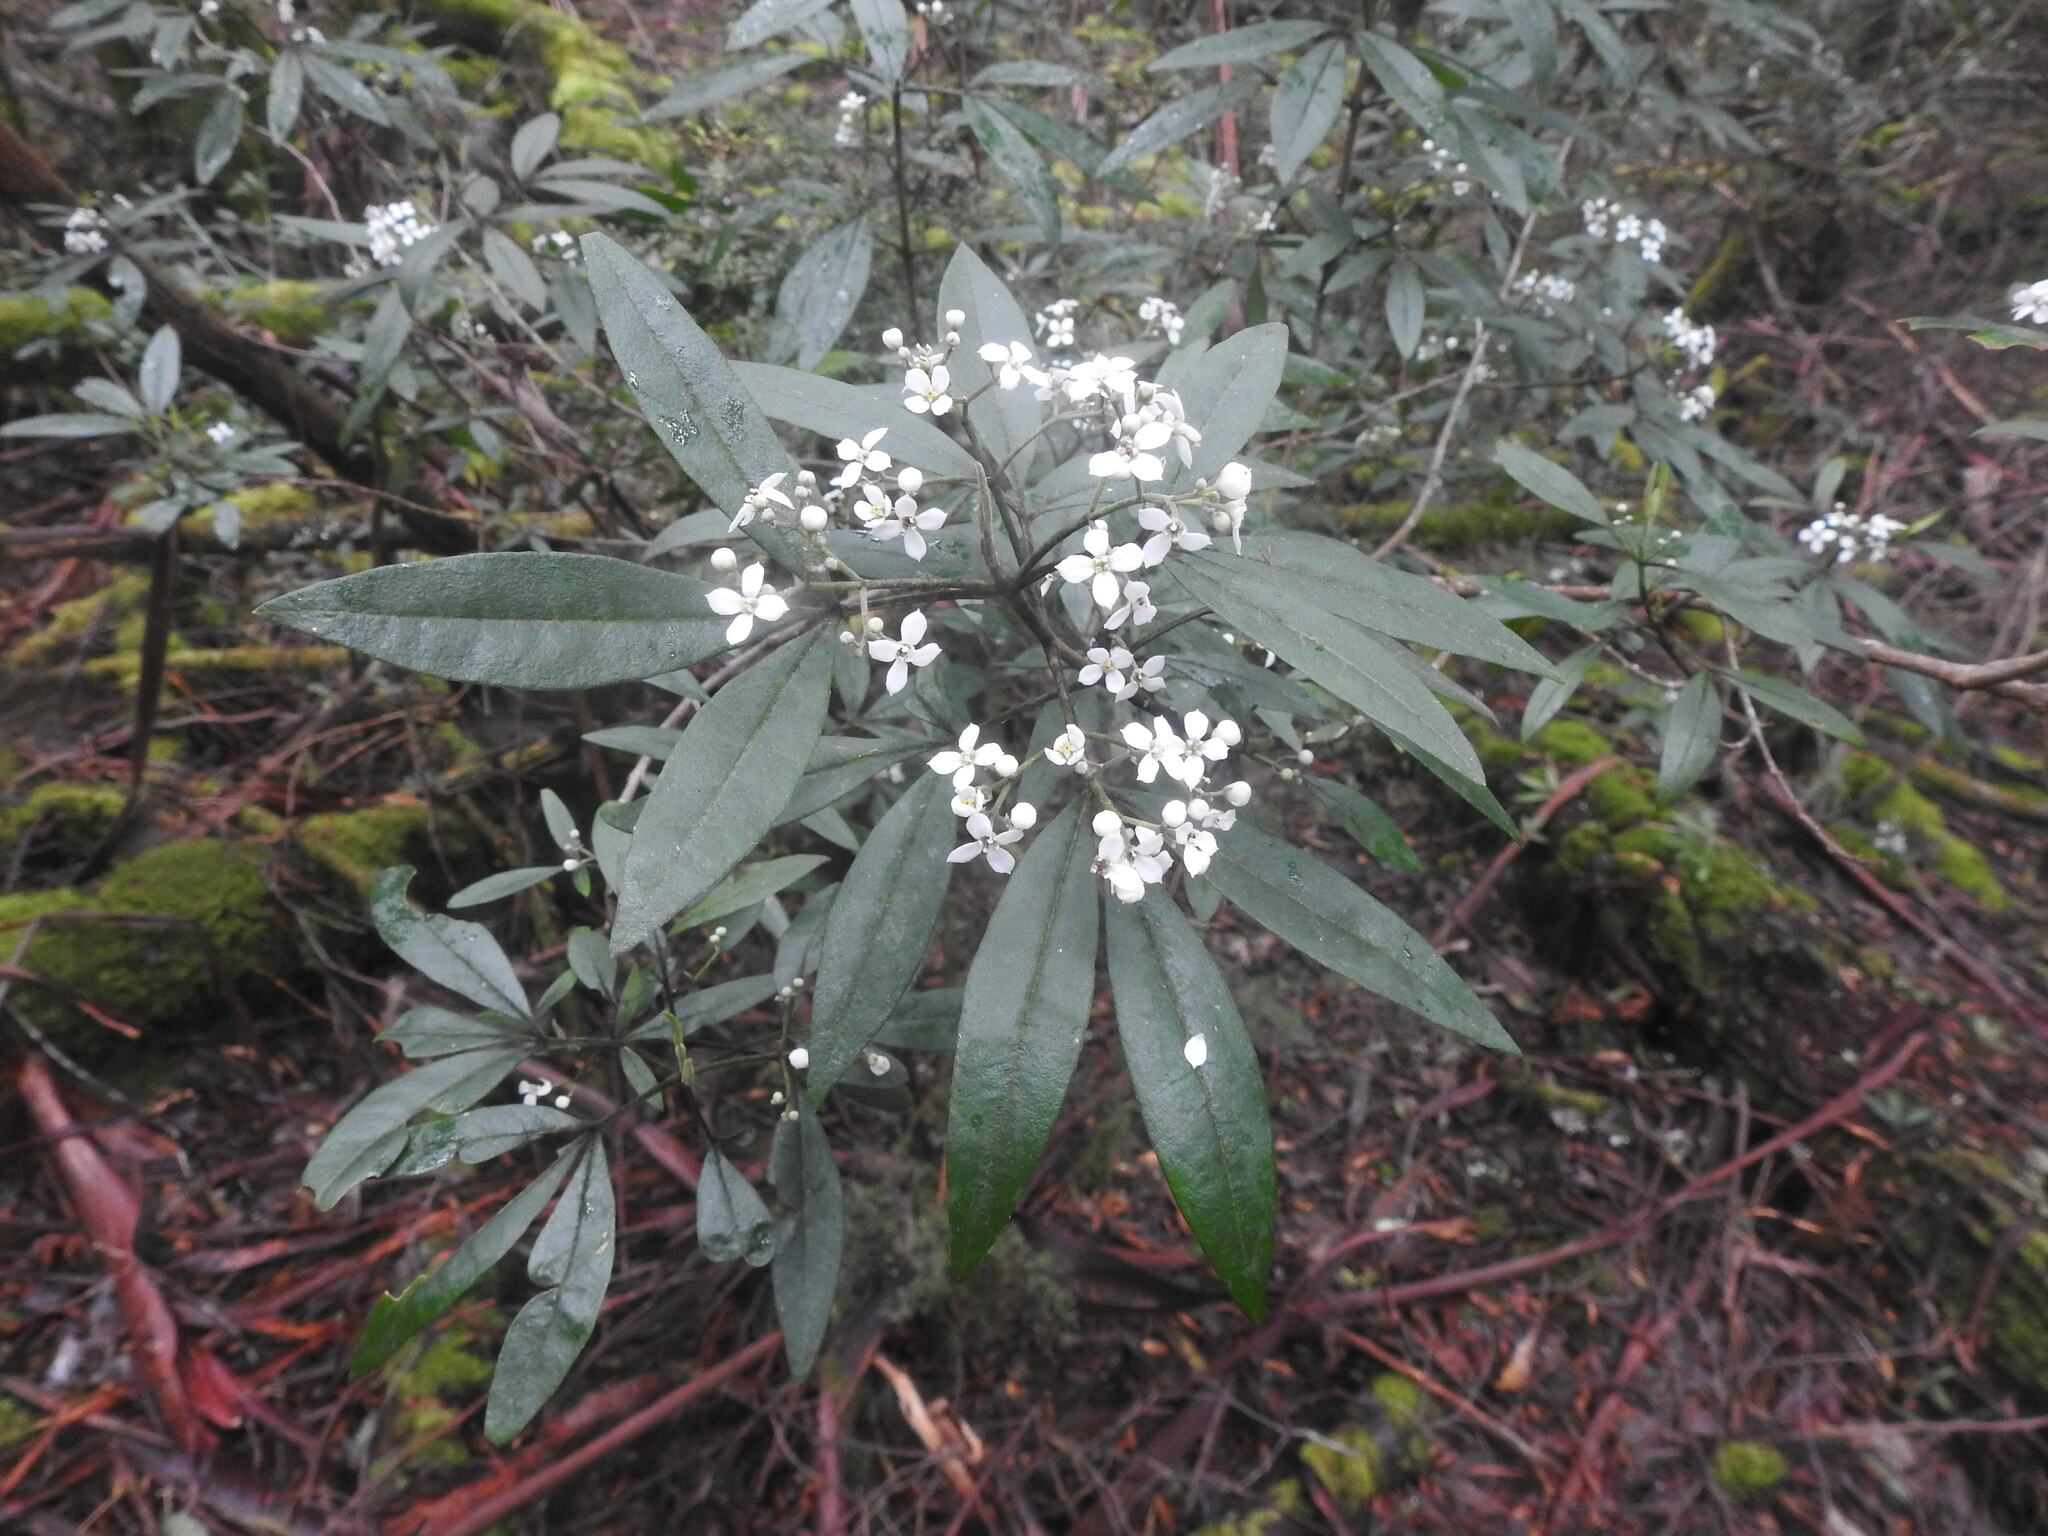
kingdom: Plantae
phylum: Tracheophyta
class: Magnoliopsida
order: Sapindales
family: Rutaceae
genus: Zieria
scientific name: Zieria arborescens
